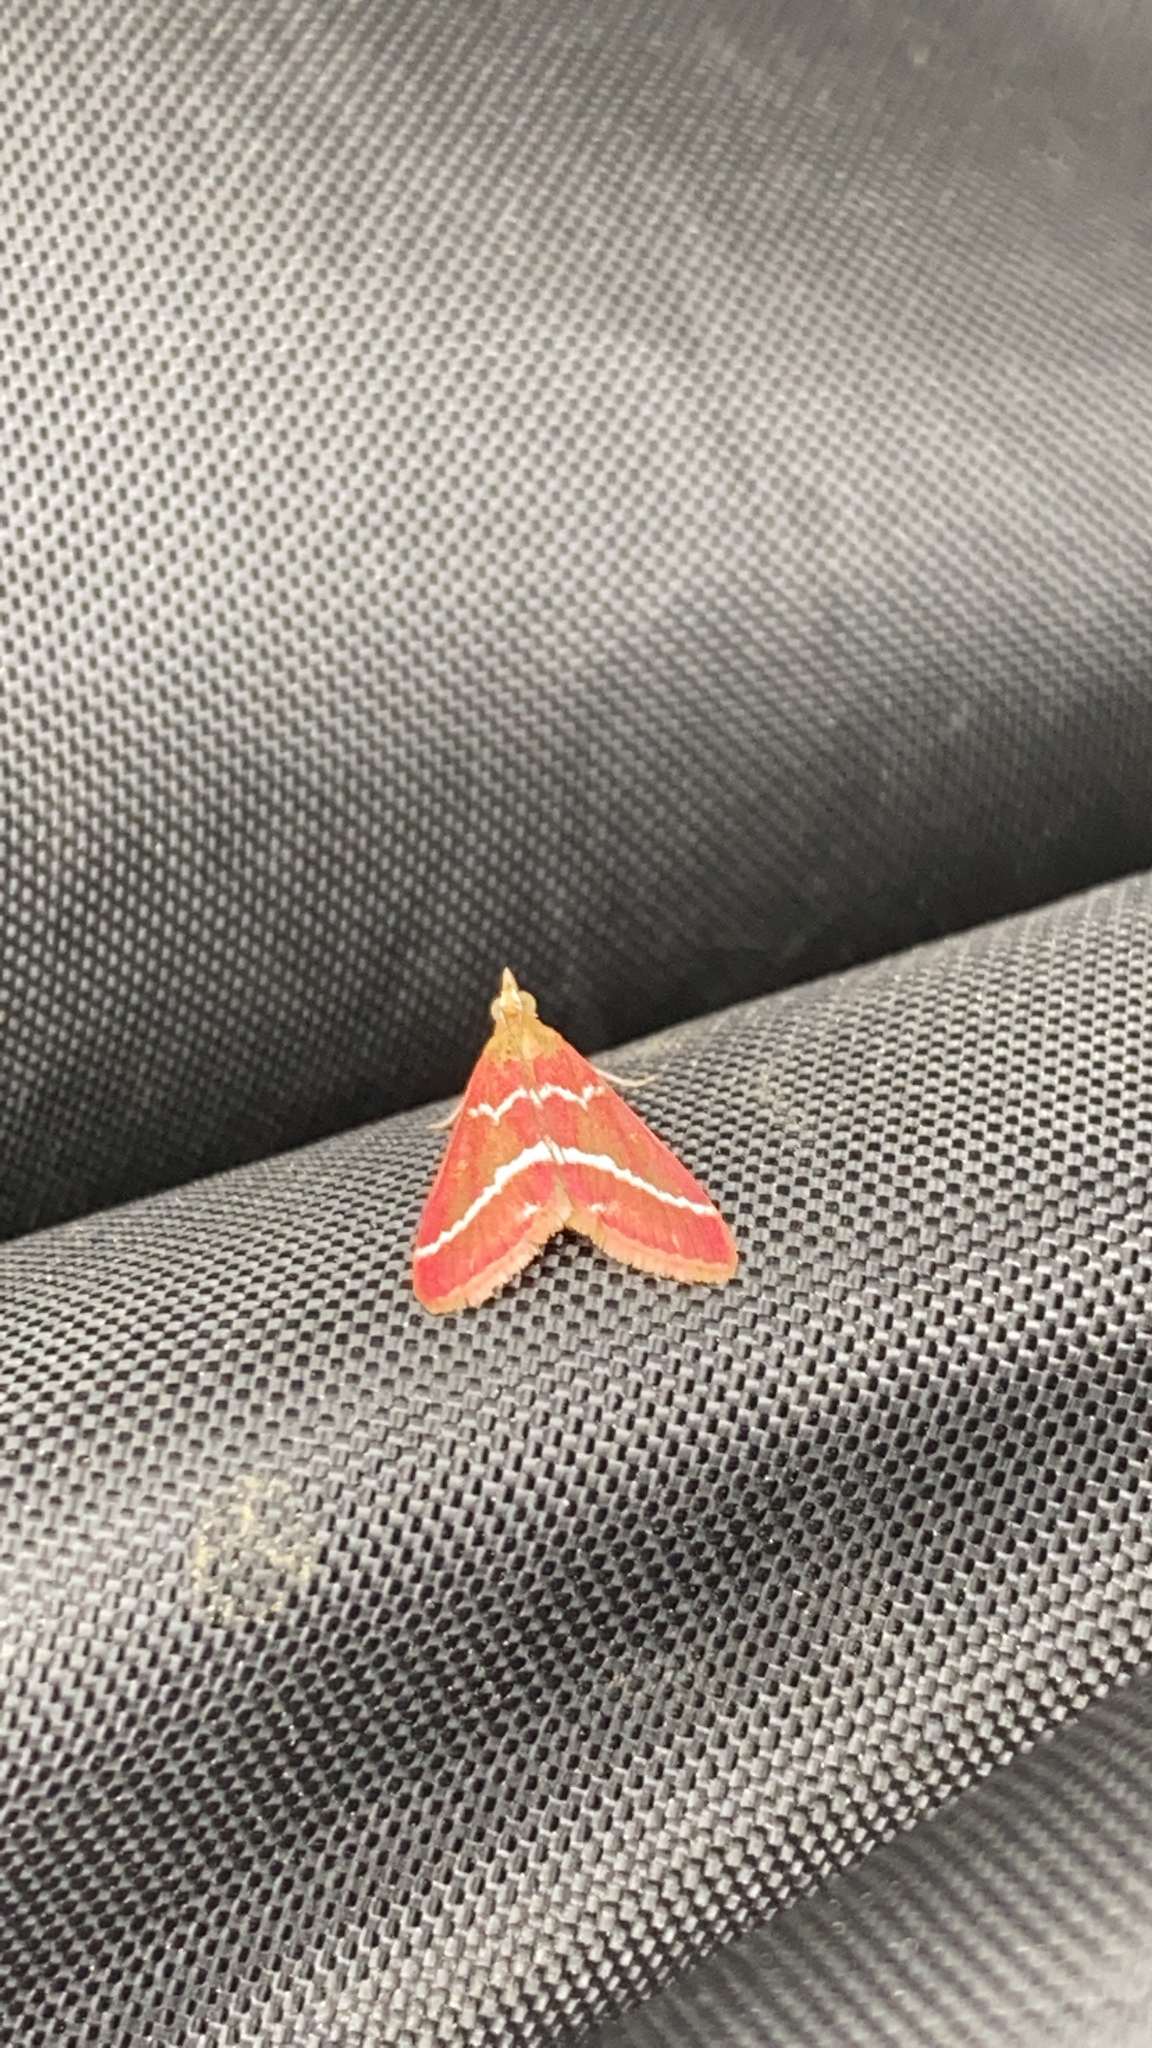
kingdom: Animalia
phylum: Arthropoda
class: Insecta
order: Lepidoptera
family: Crambidae
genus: Pyrausta
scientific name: Pyrausta volupialis
